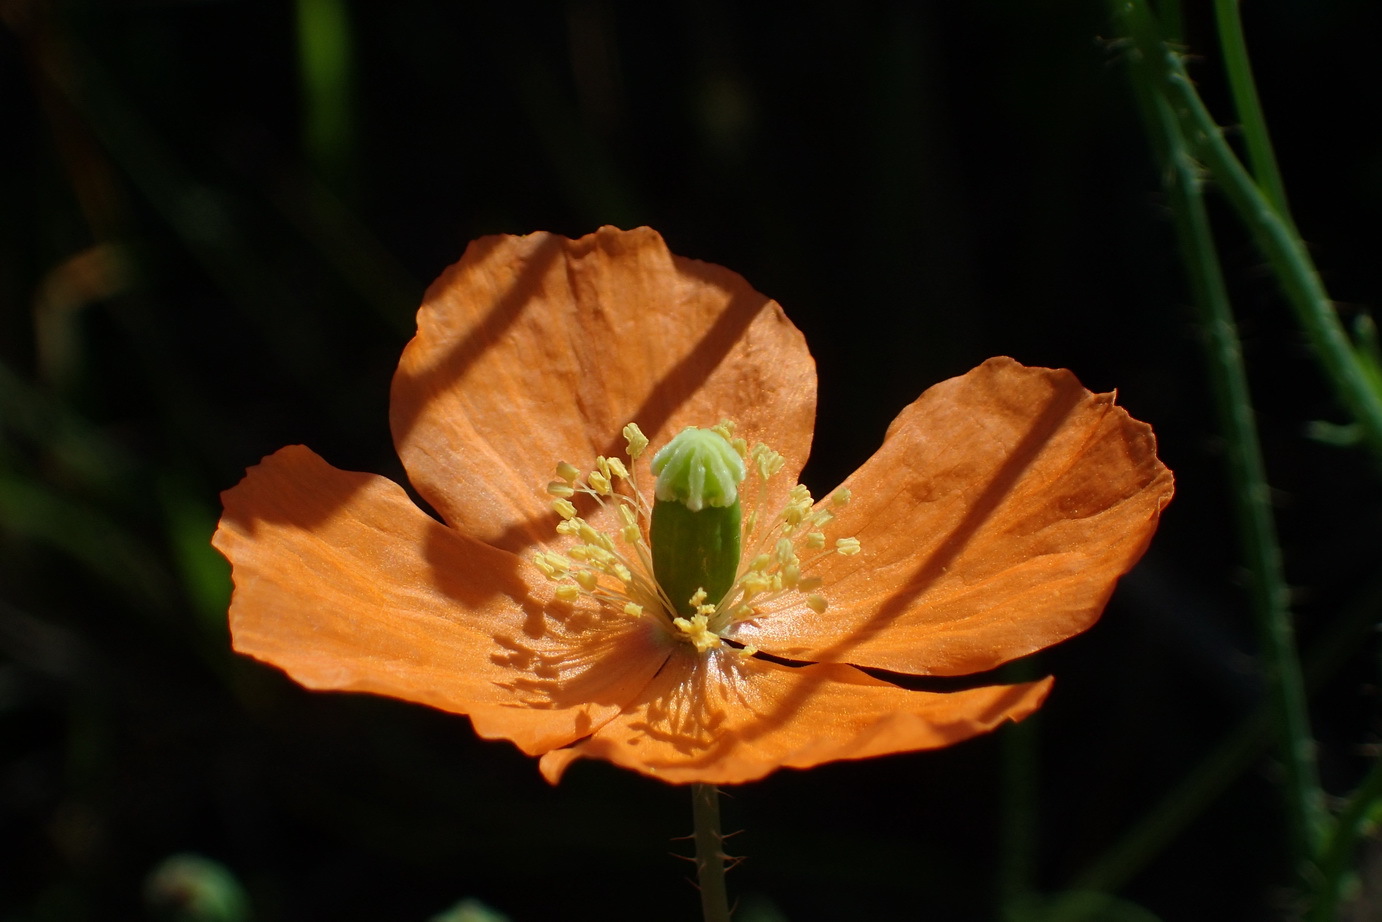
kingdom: Plantae
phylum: Tracheophyta
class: Magnoliopsida
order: Ranunculales
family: Papaveraceae
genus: Papaver
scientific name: Papaver aculeatum
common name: Bristle poppy
